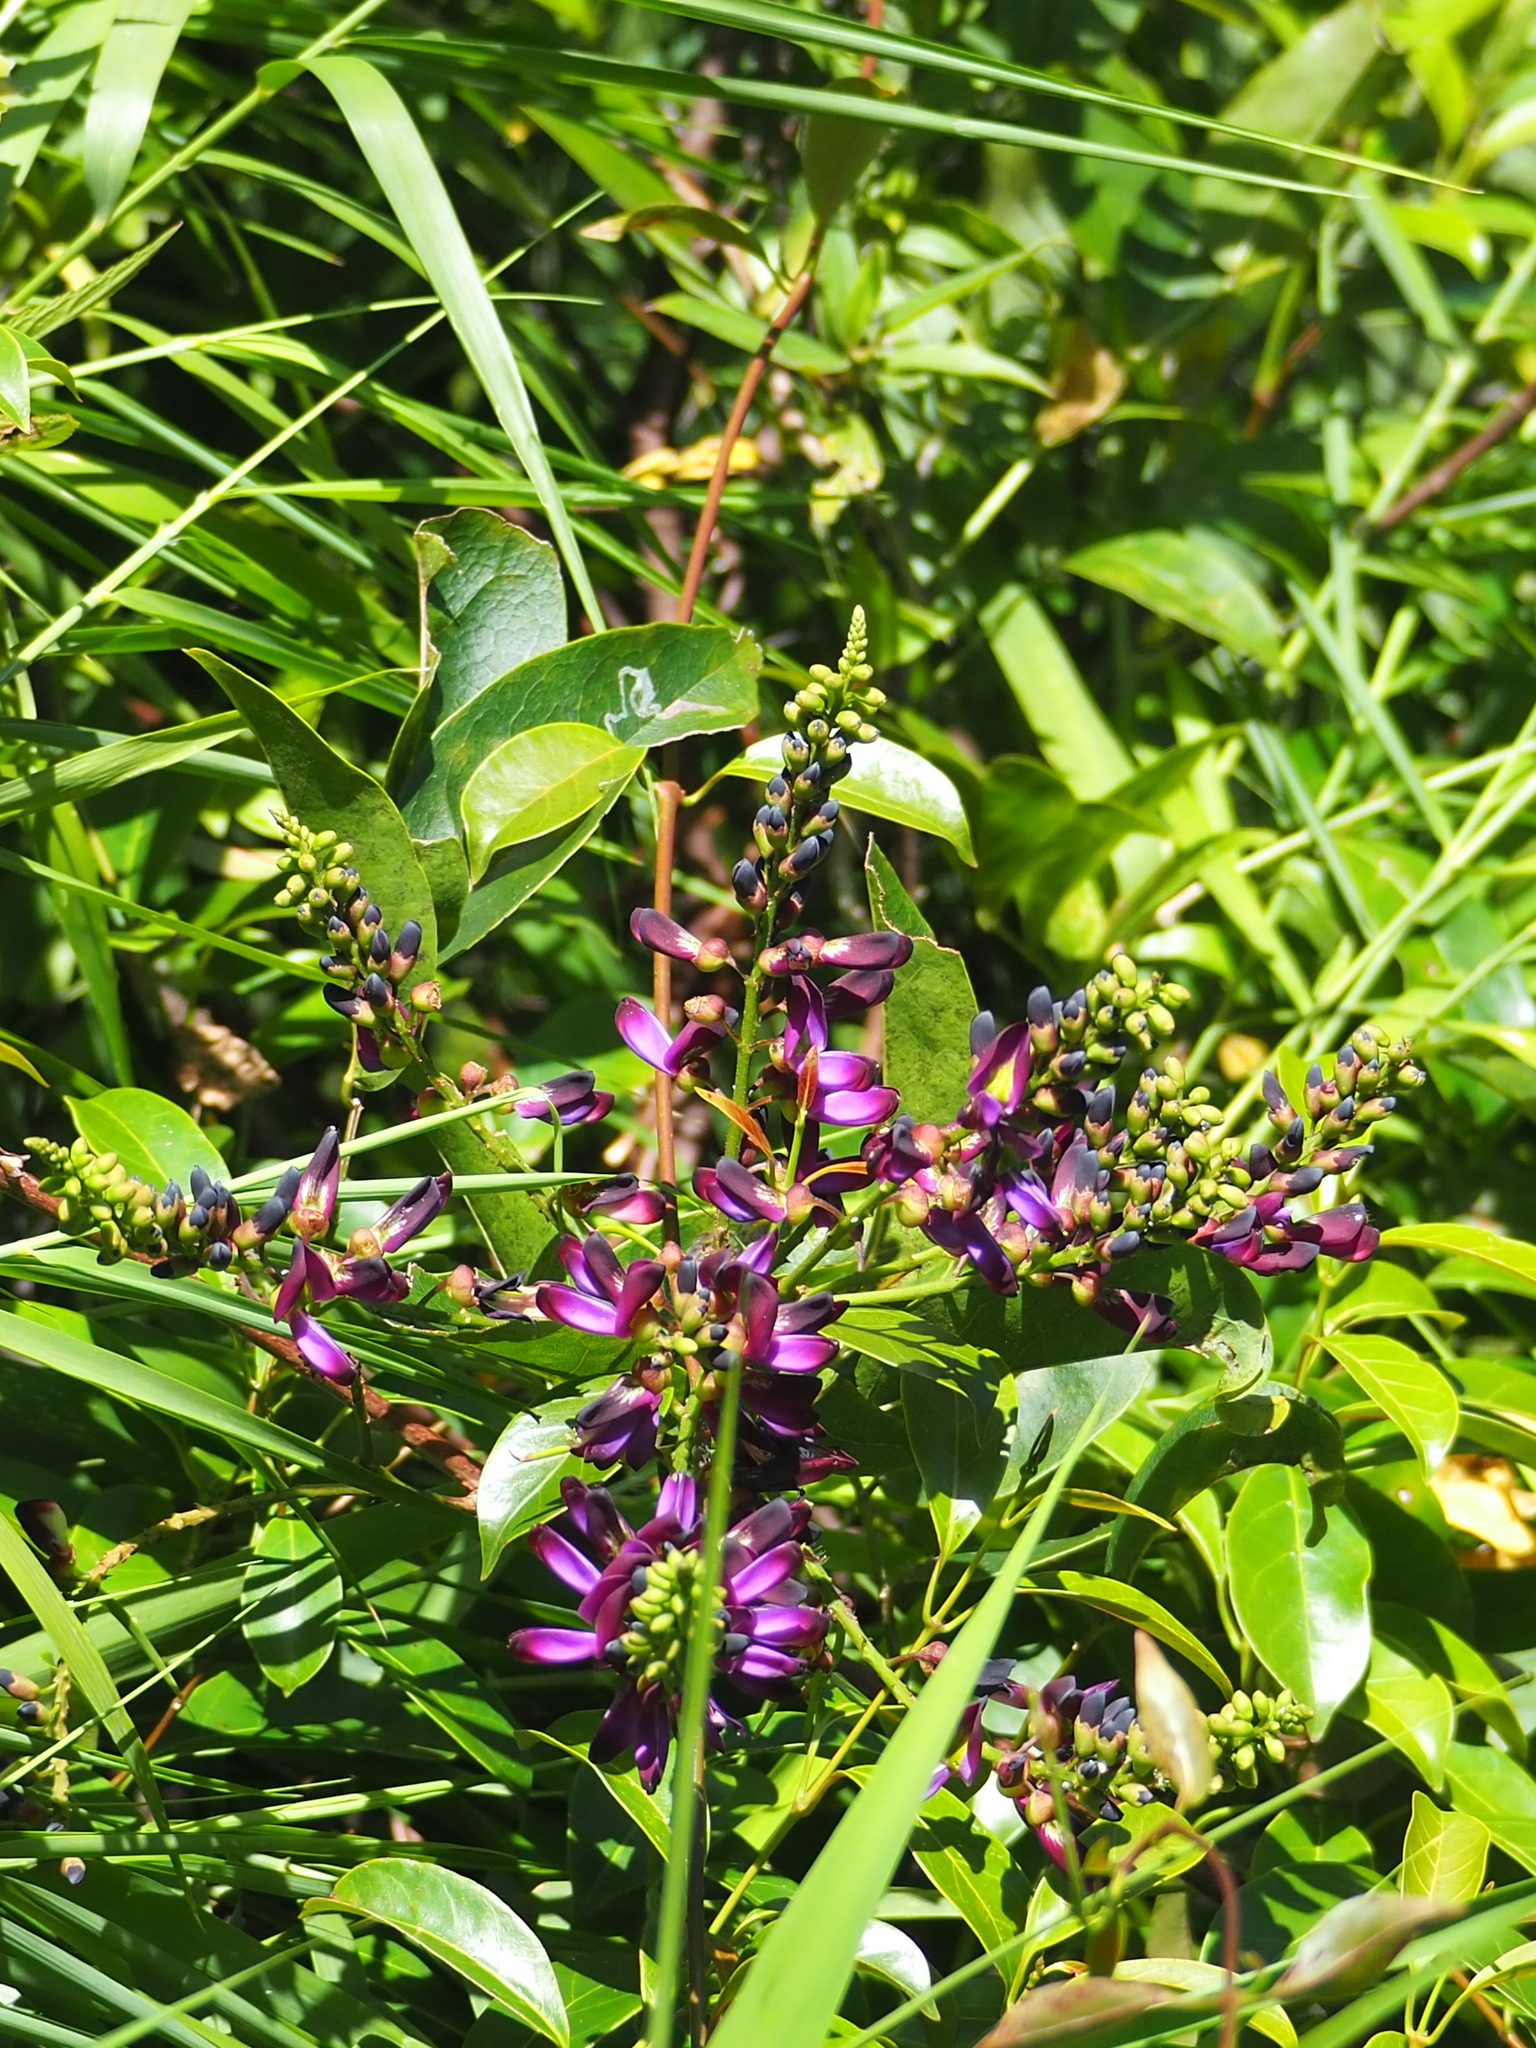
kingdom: Plantae
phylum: Tracheophyta
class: Magnoliopsida
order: Fabales
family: Fabaceae
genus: Wisteriopsis
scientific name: Wisteriopsis reticulata
